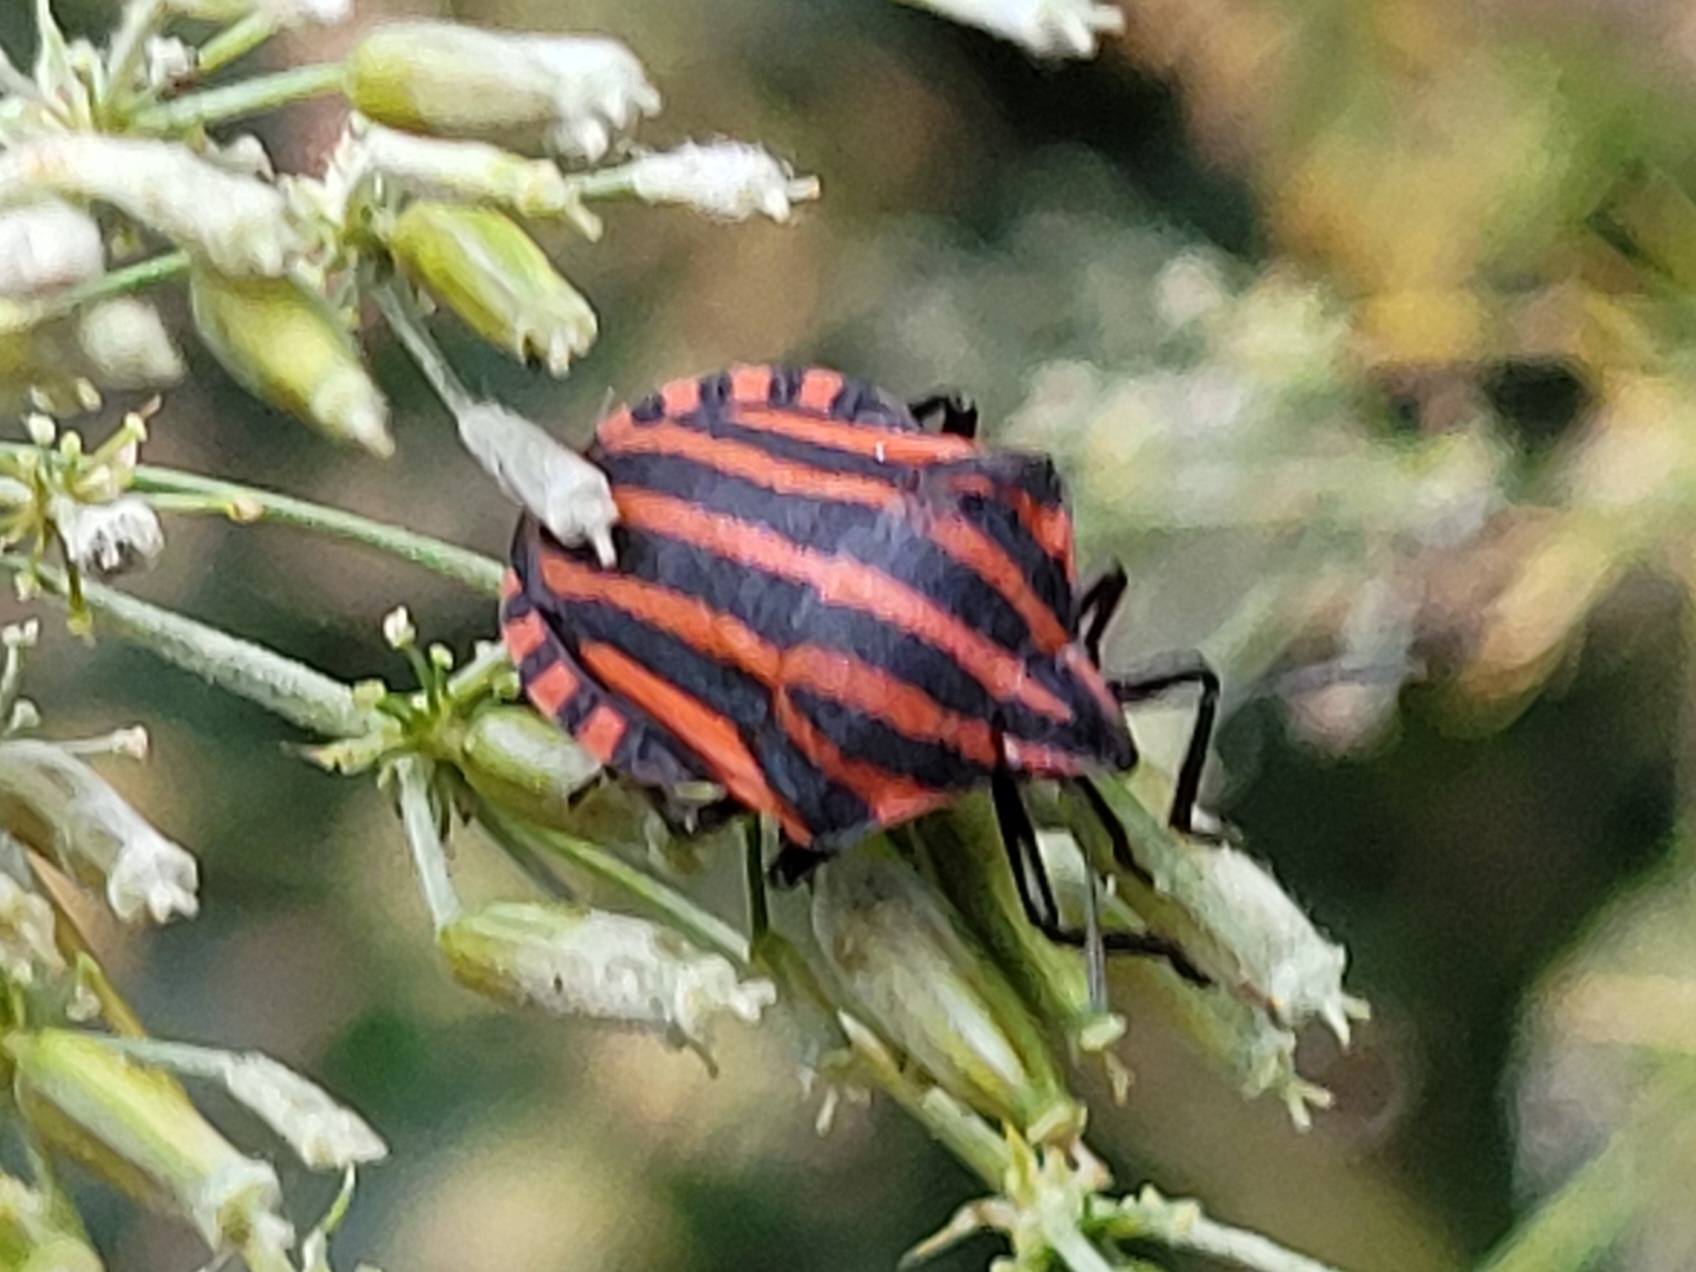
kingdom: Animalia
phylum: Arthropoda
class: Insecta
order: Hemiptera
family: Pentatomidae
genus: Graphosoma
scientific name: Graphosoma italicum
